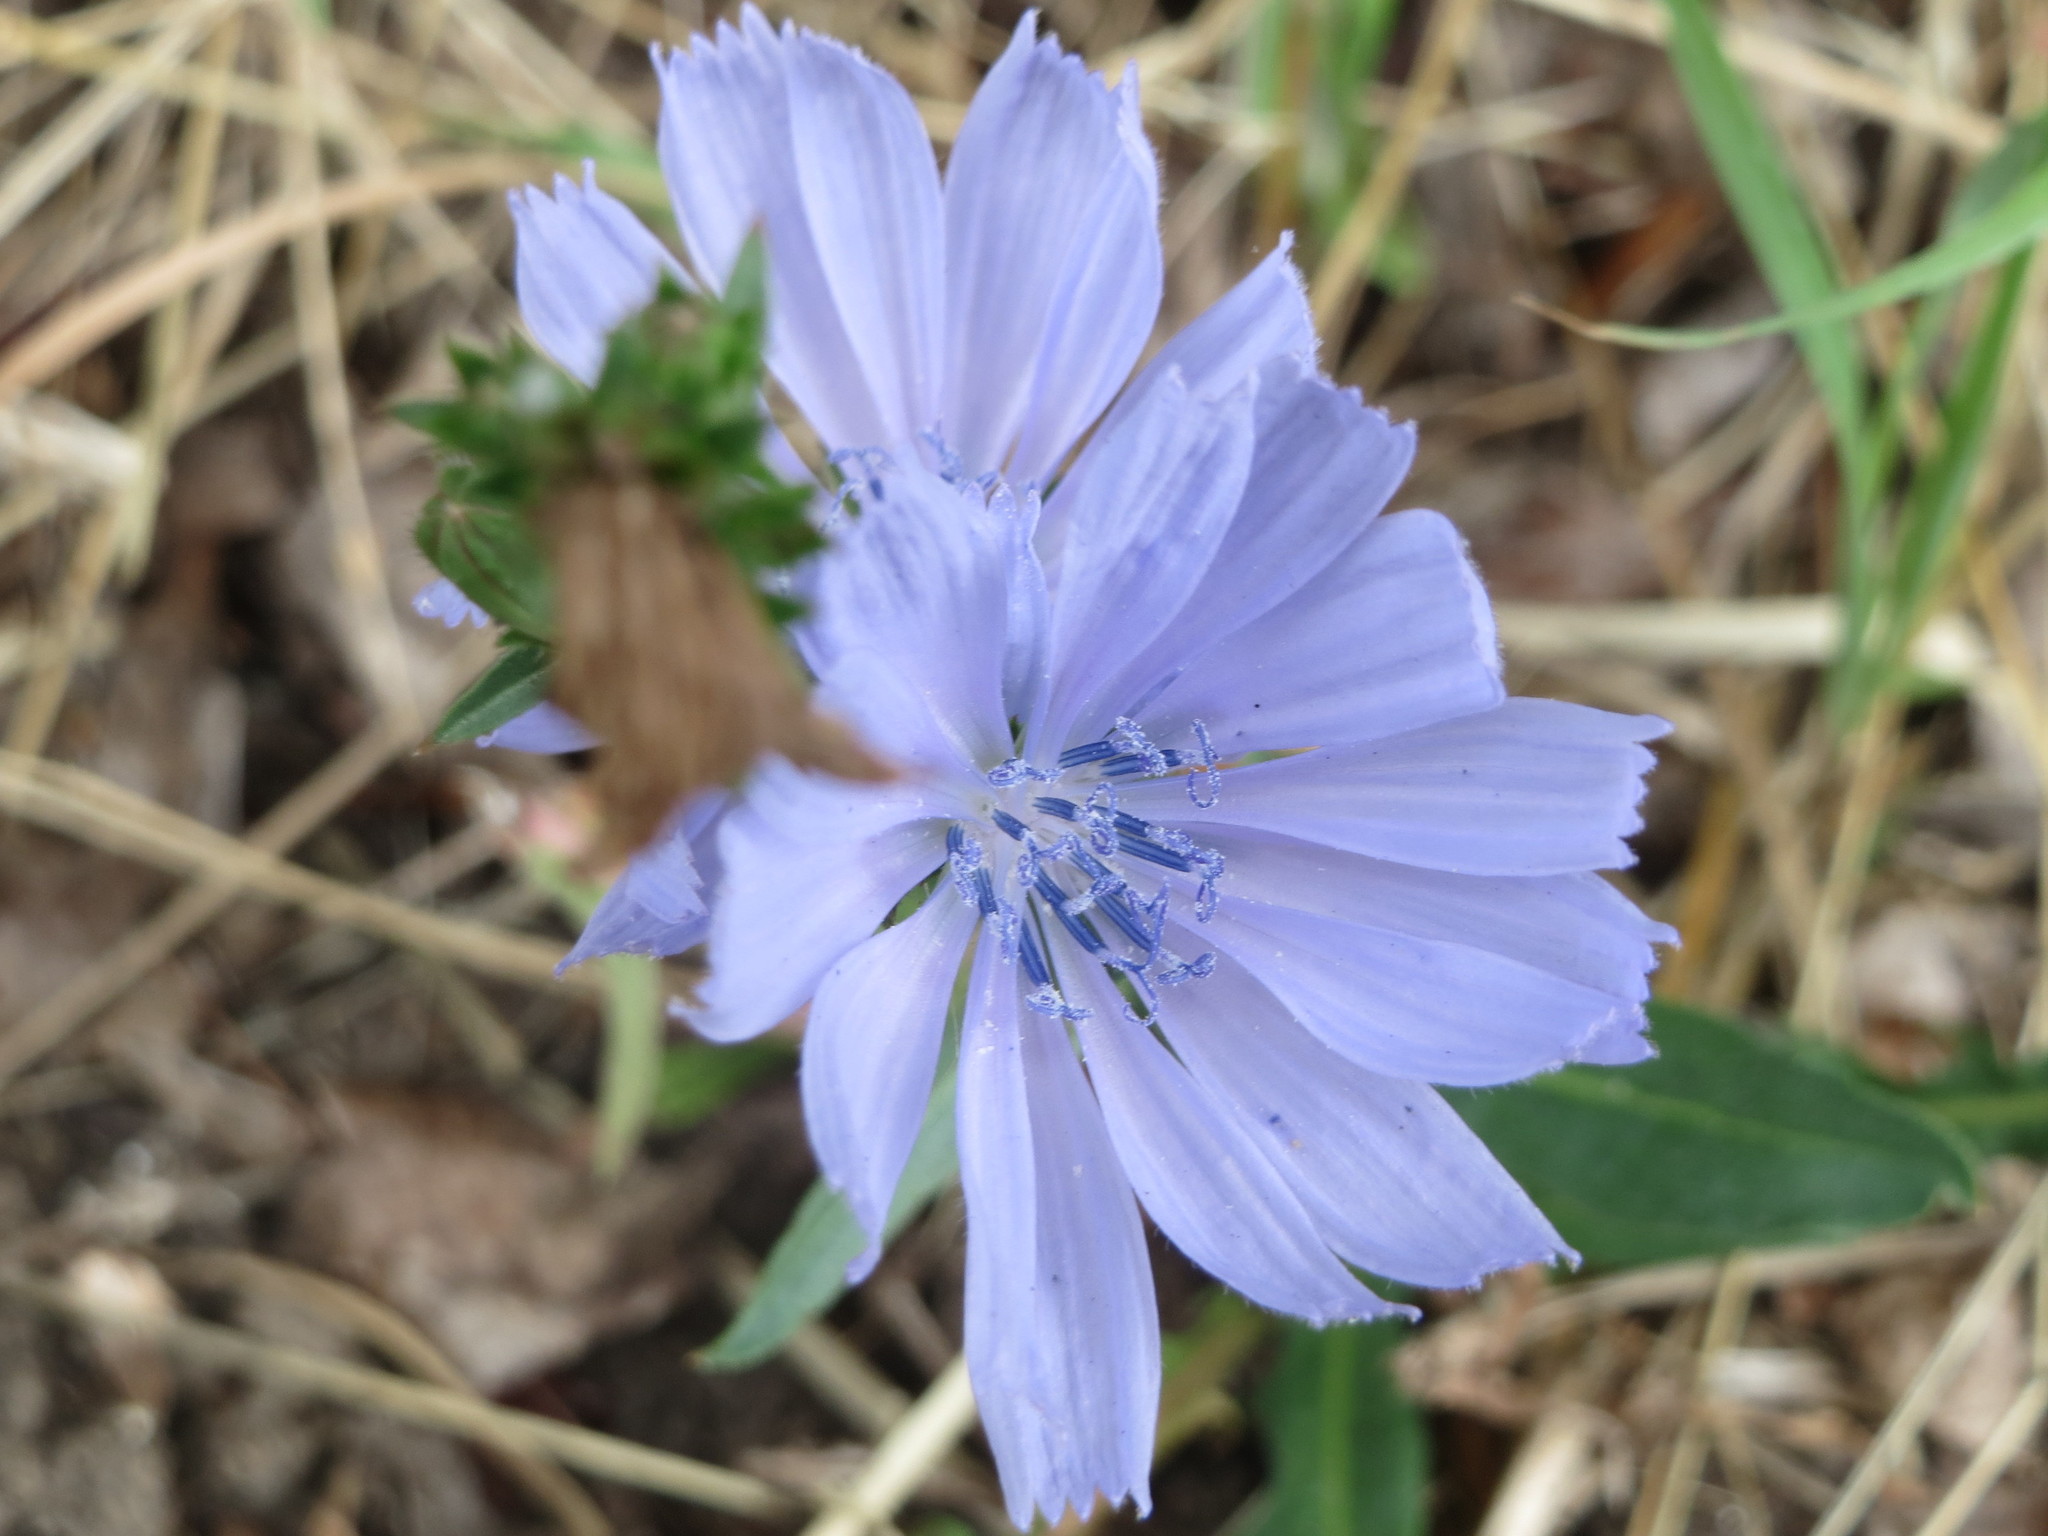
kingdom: Plantae
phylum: Tracheophyta
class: Magnoliopsida
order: Asterales
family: Asteraceae
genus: Cichorium
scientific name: Cichorium intybus
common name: Chicory
